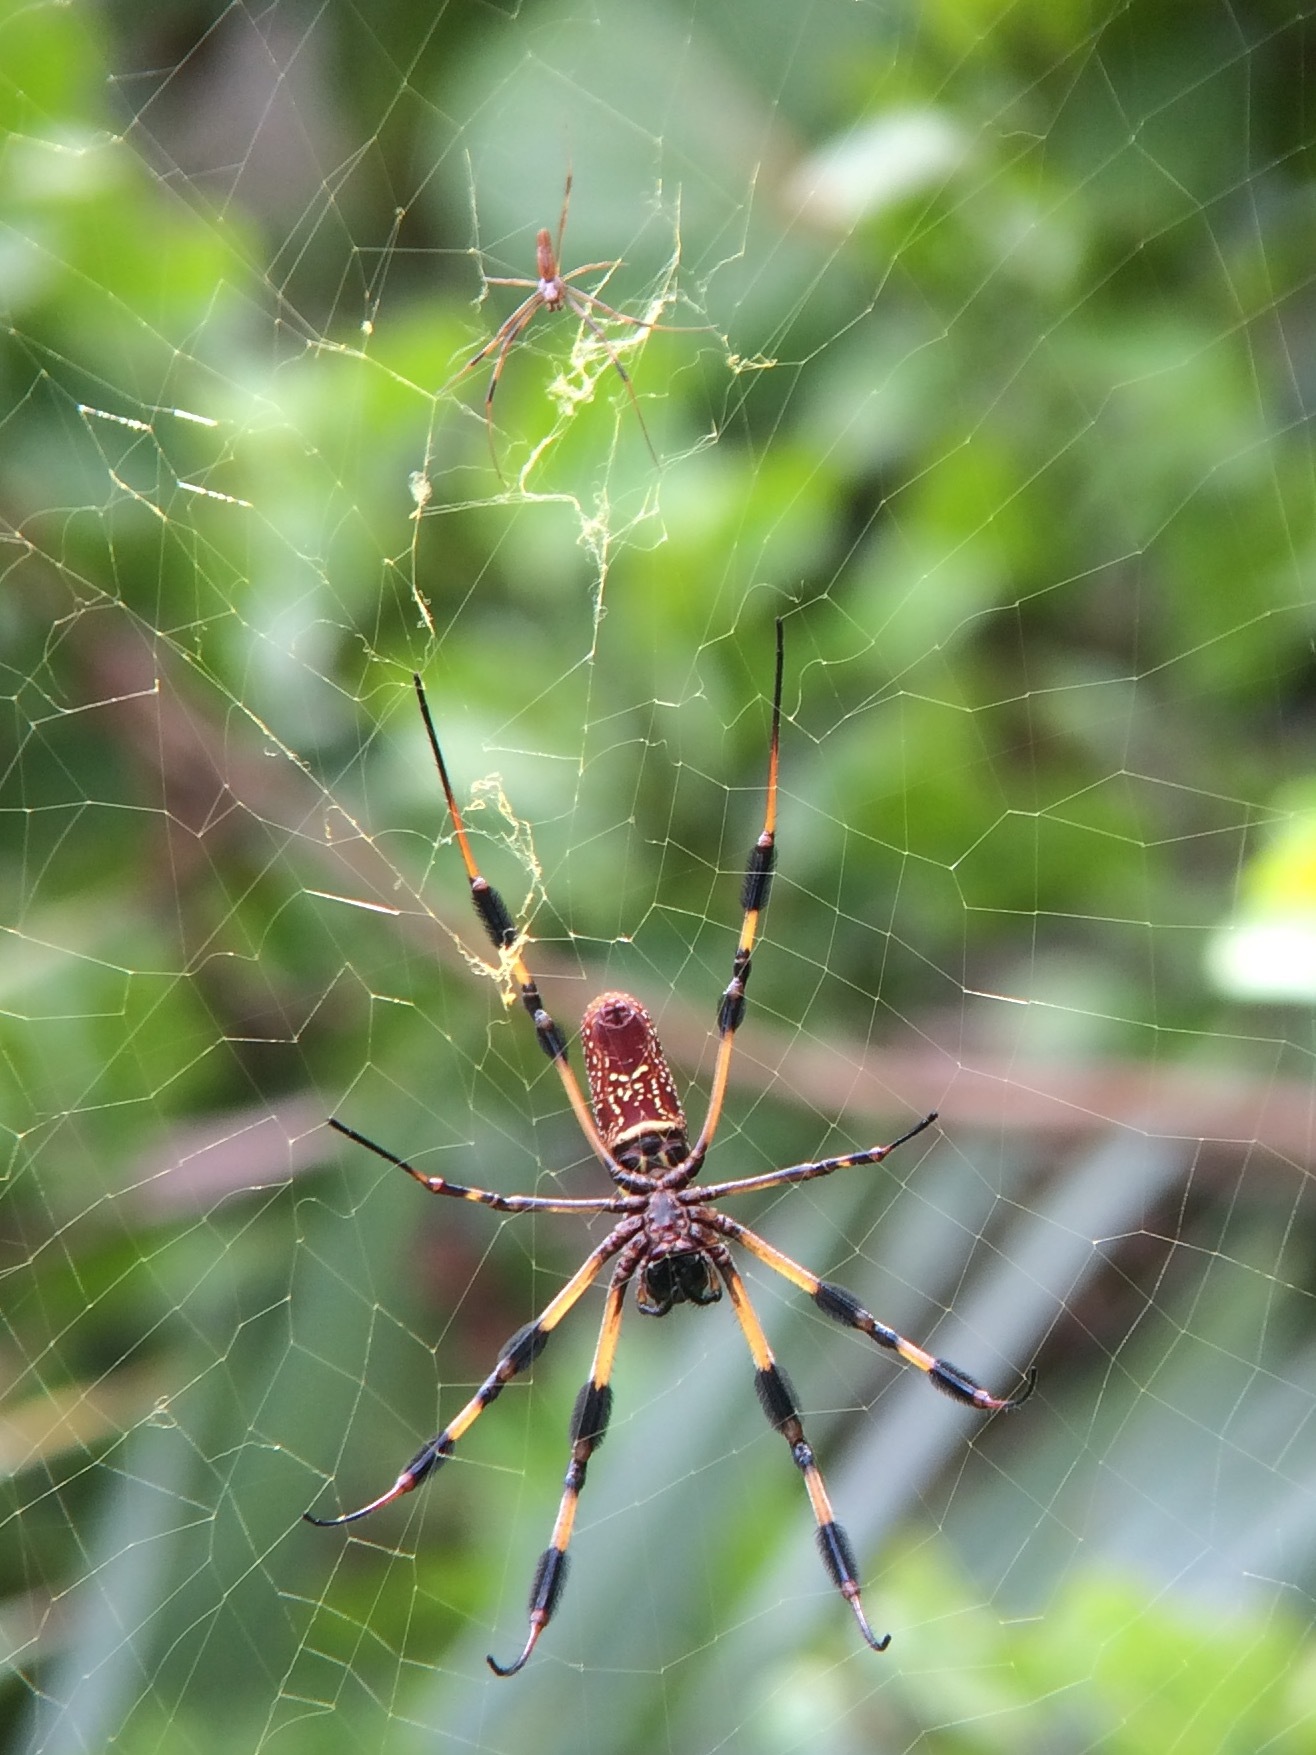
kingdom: Animalia
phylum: Arthropoda
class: Arachnida
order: Araneae
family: Araneidae
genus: Trichonephila
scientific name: Trichonephila clavipes
